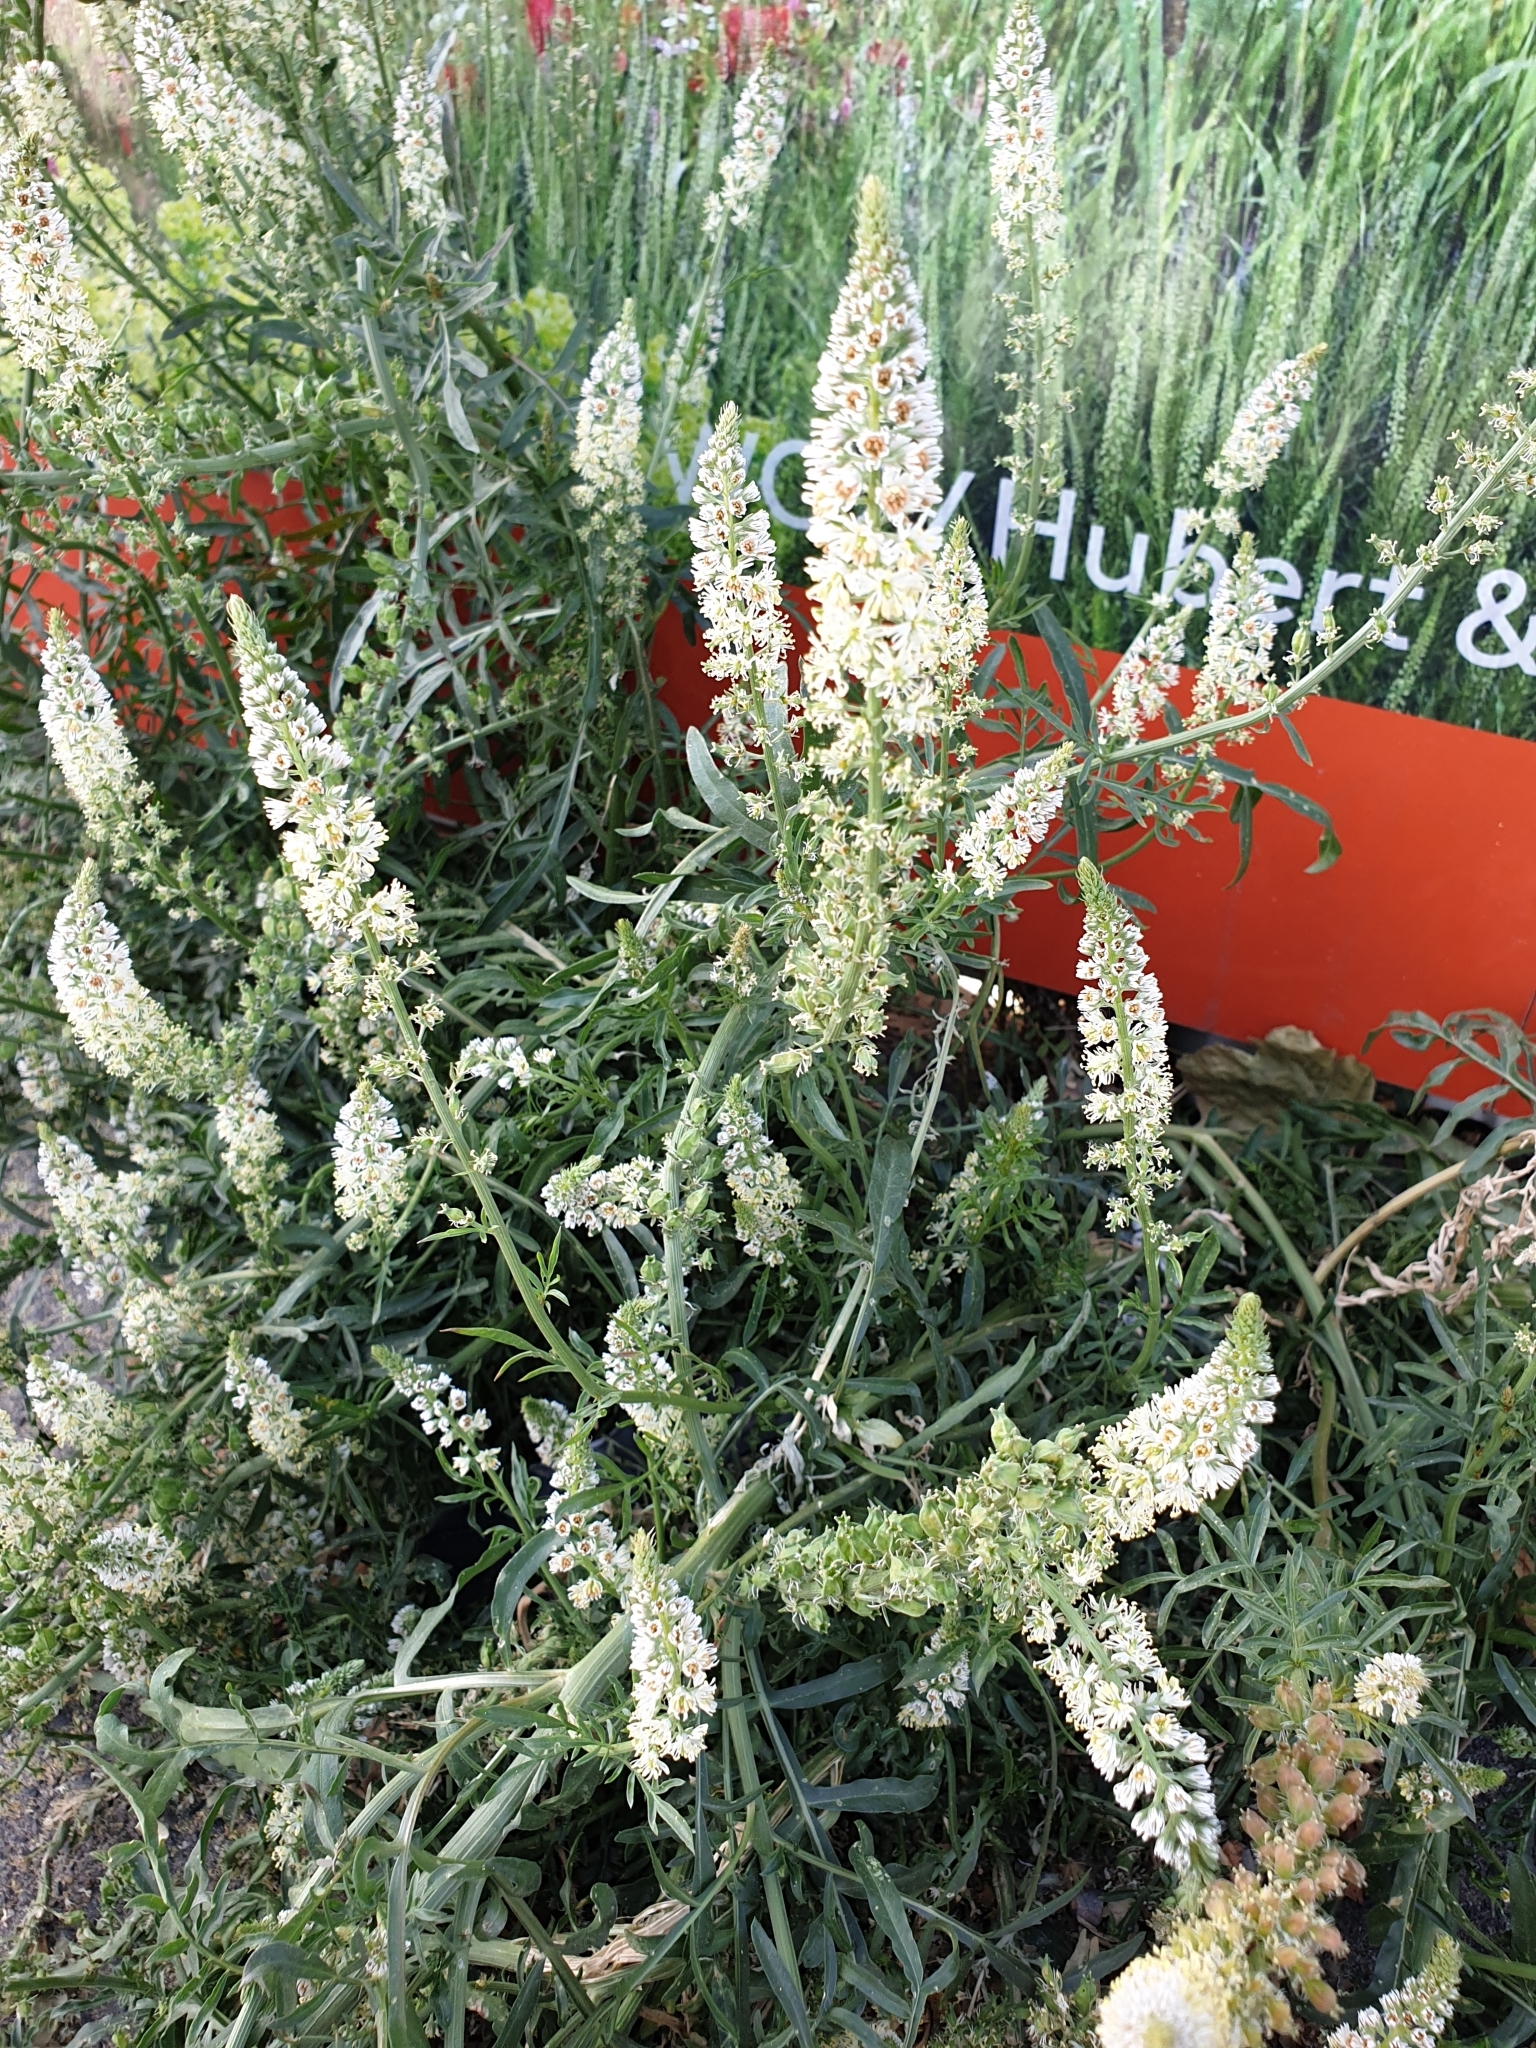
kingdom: Plantae
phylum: Tracheophyta
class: Magnoliopsida
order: Brassicales
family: Resedaceae
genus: Reseda
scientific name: Reseda alba
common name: White mignonette
